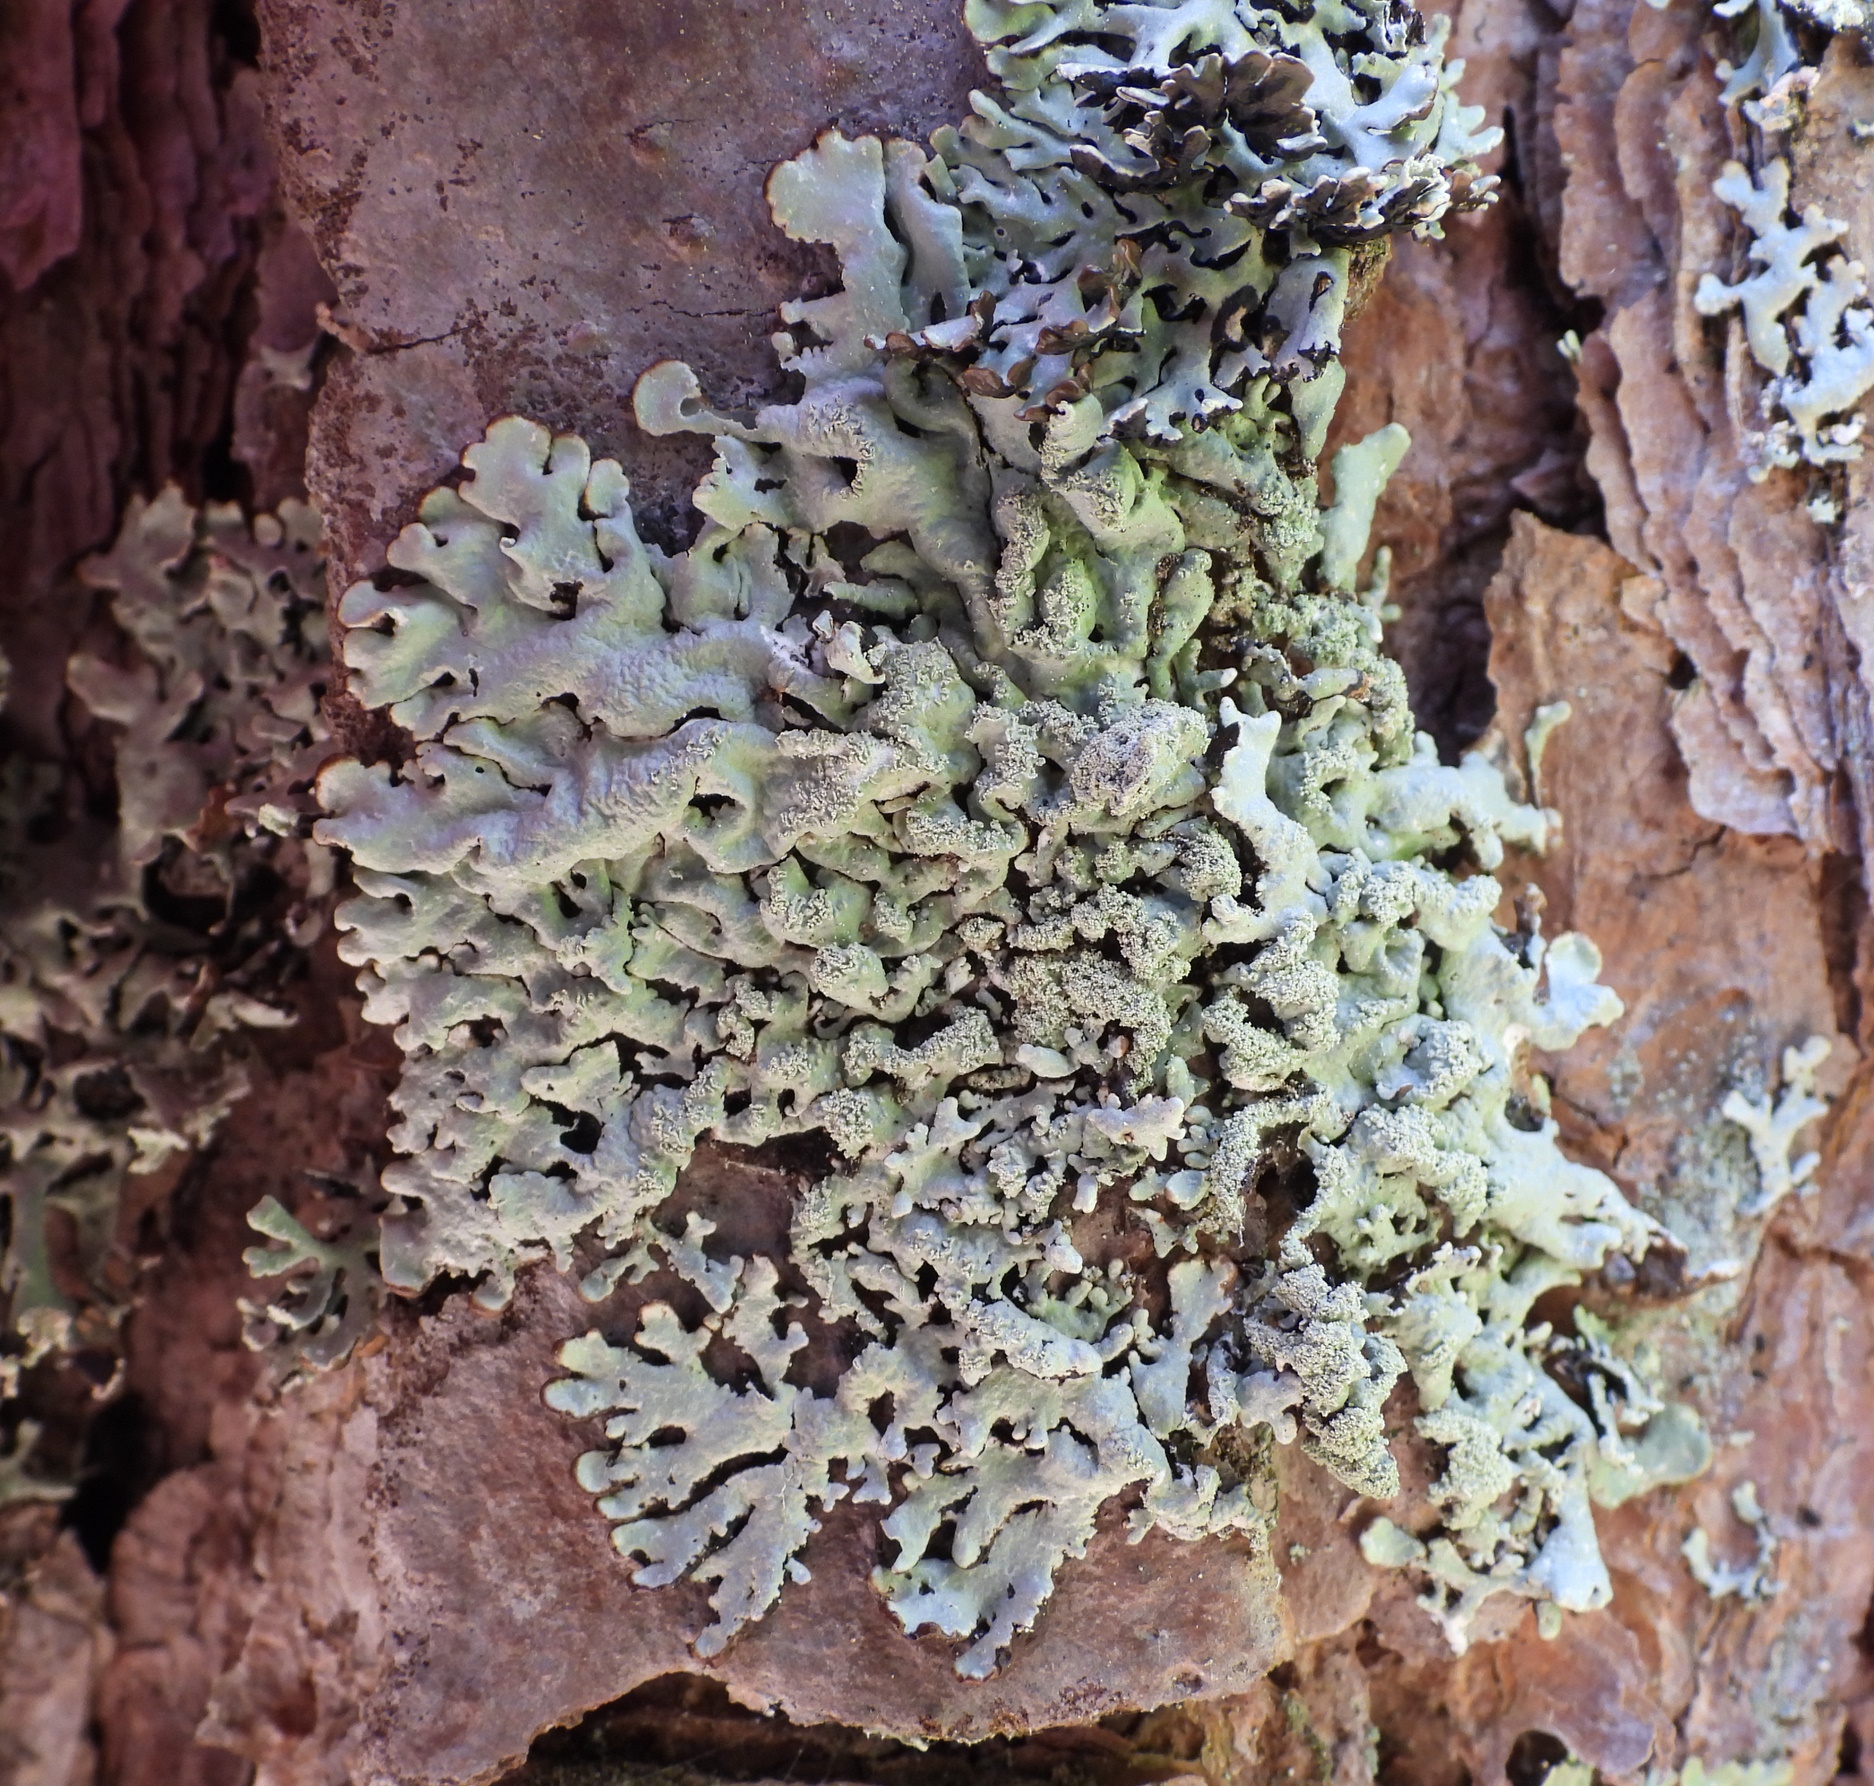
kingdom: Fungi
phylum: Ascomycota
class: Lecanoromycetes
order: Lecanorales
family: Parmeliaceae
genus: Hypogymnia
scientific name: Hypogymnia farinacea
